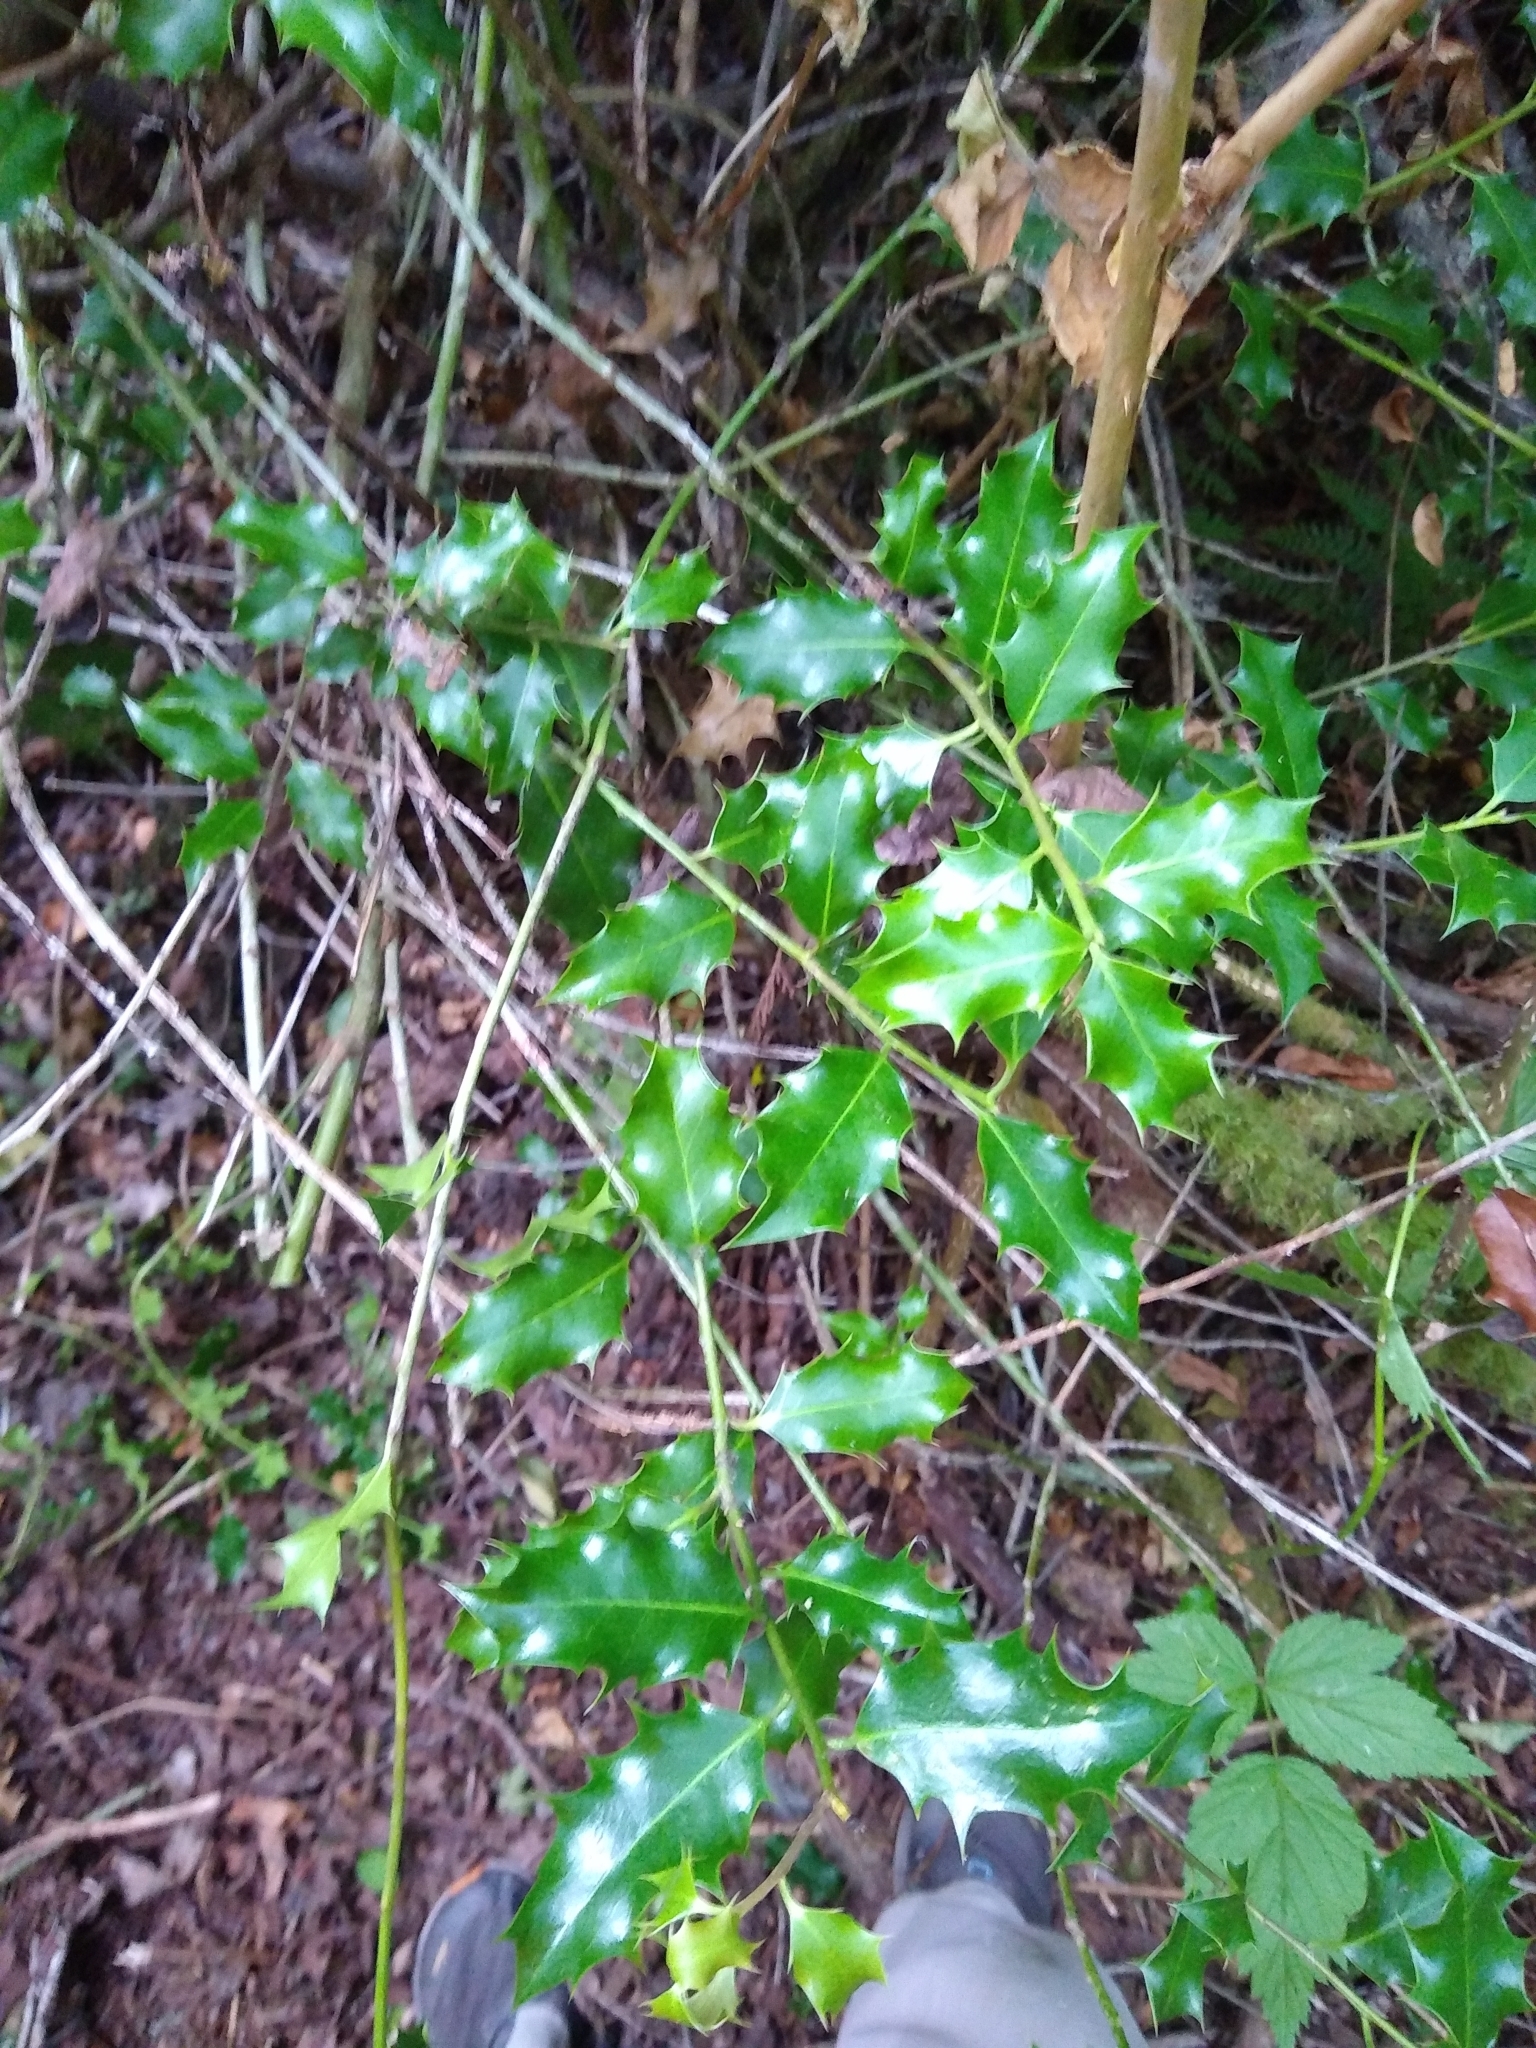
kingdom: Plantae
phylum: Tracheophyta
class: Magnoliopsida
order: Aquifoliales
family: Aquifoliaceae
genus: Ilex
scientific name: Ilex aquifolium
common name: English holly
